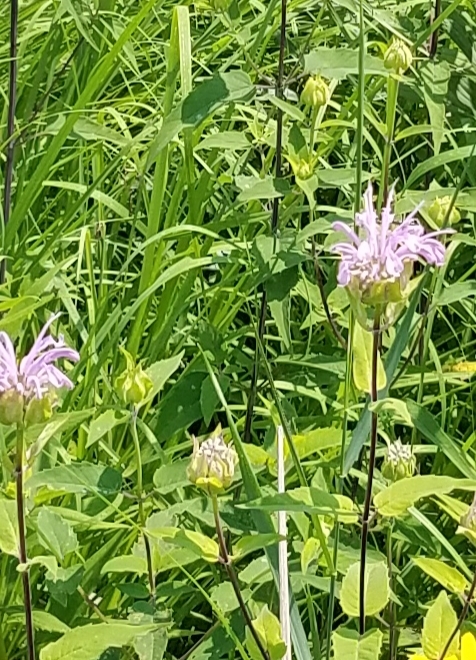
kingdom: Plantae
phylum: Tracheophyta
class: Magnoliopsida
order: Lamiales
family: Lamiaceae
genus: Monarda
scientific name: Monarda fistulosa
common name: Purple beebalm
